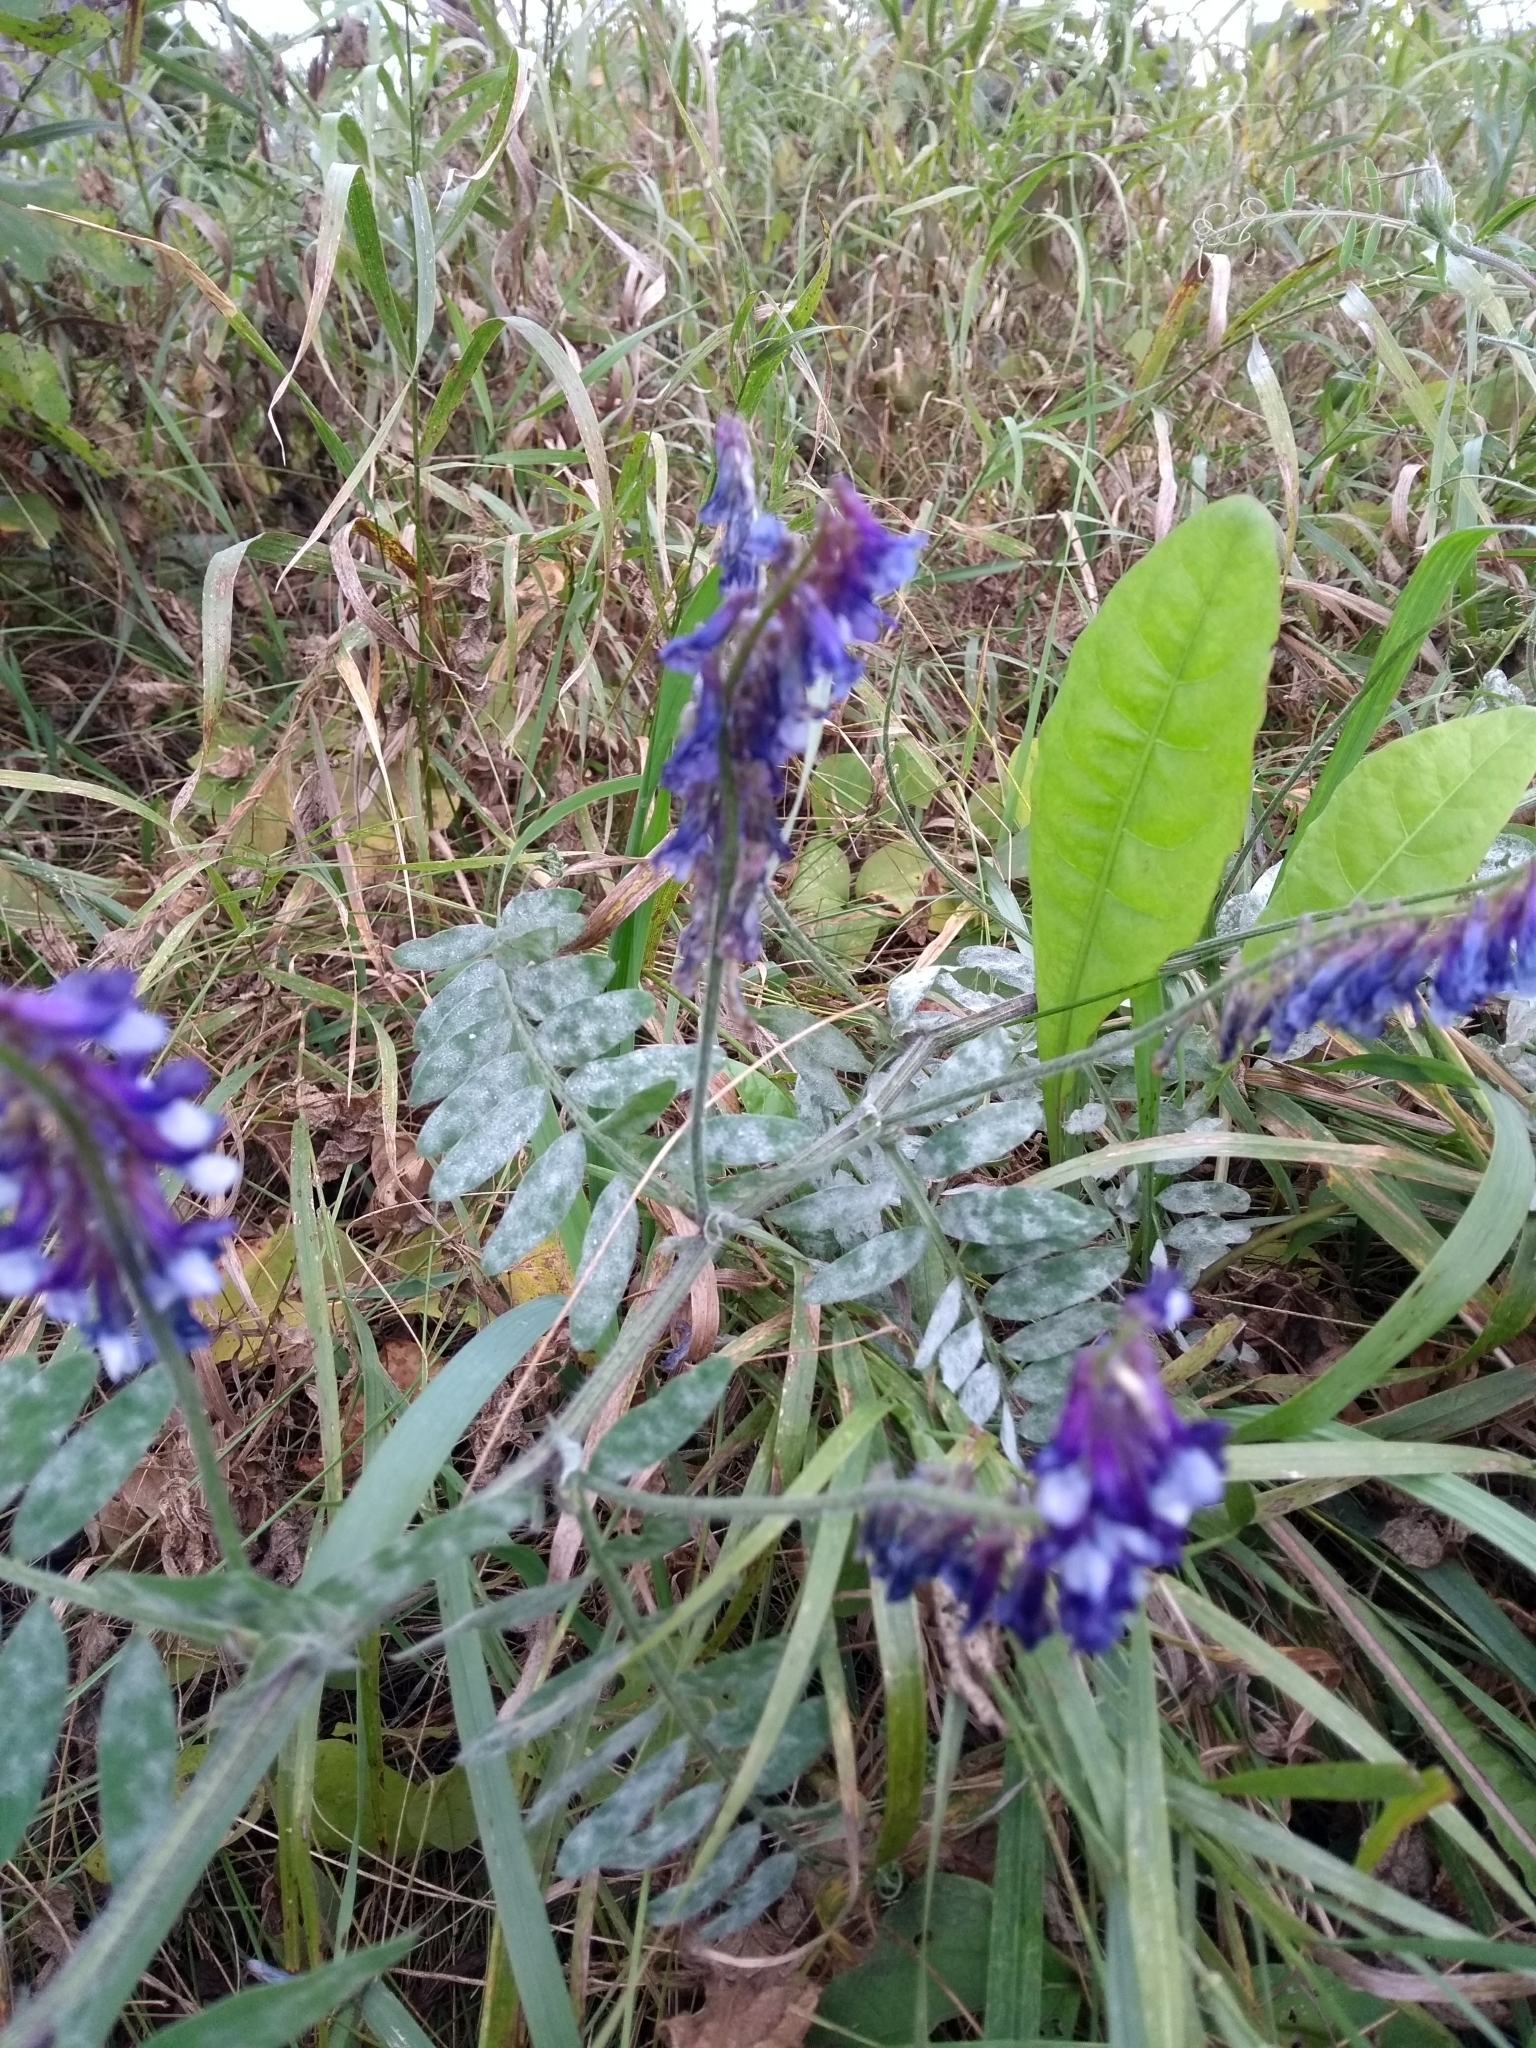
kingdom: Plantae
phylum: Tracheophyta
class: Magnoliopsida
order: Fabales
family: Fabaceae
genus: Vicia
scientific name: Vicia villosa
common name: Fodder vetch
